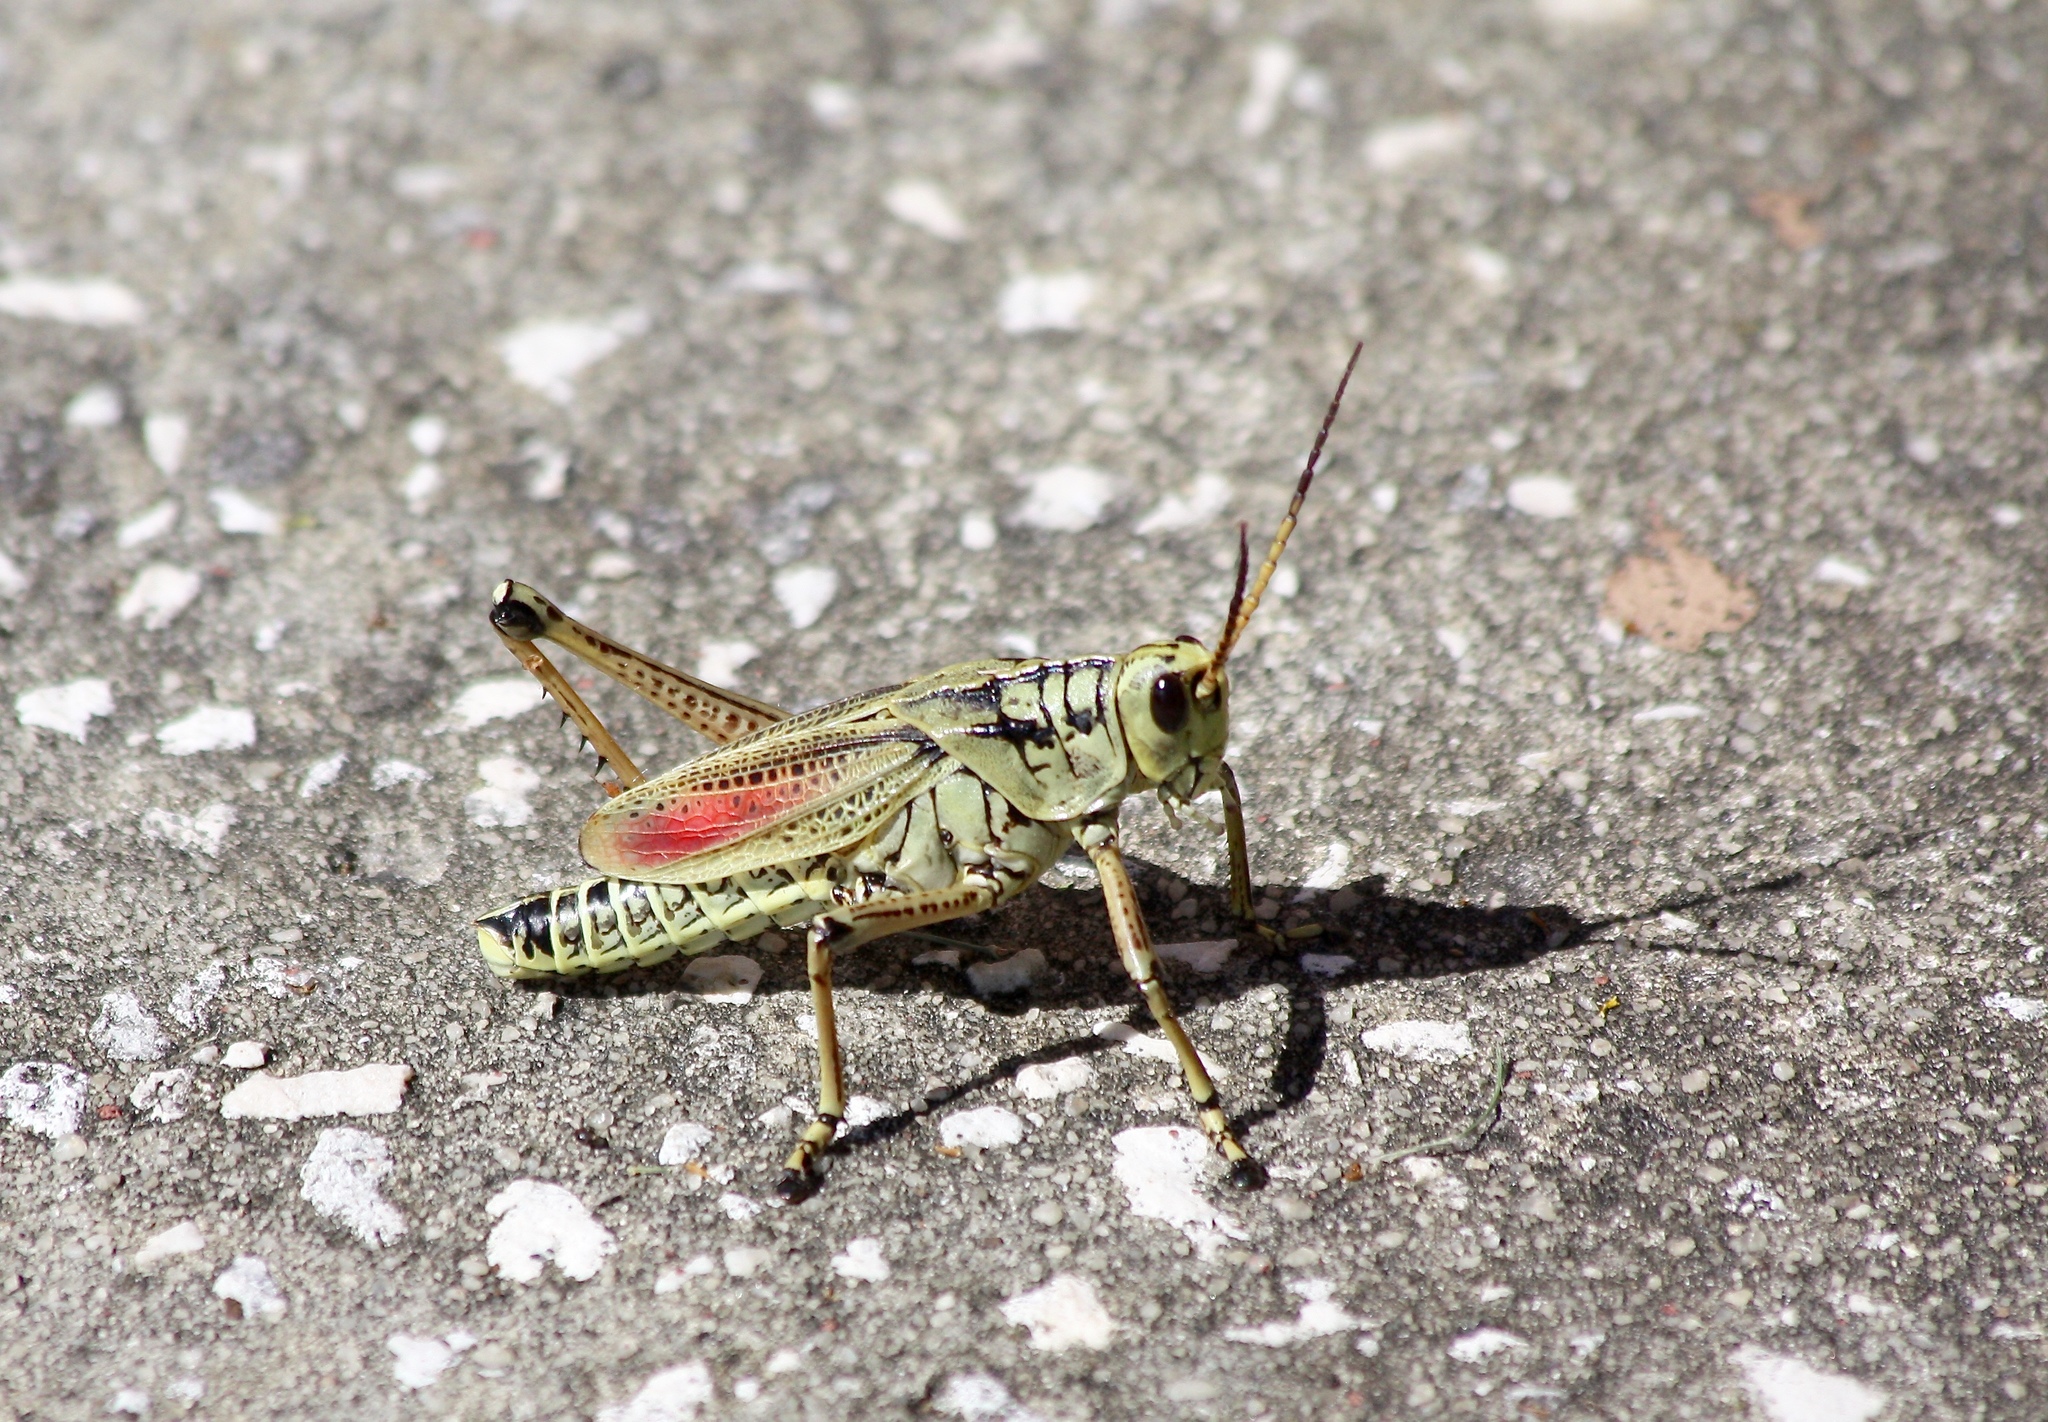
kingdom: Animalia
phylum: Arthropoda
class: Insecta
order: Orthoptera
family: Romaleidae
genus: Romalea
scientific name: Romalea microptera
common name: Eastern lubber grasshopper
